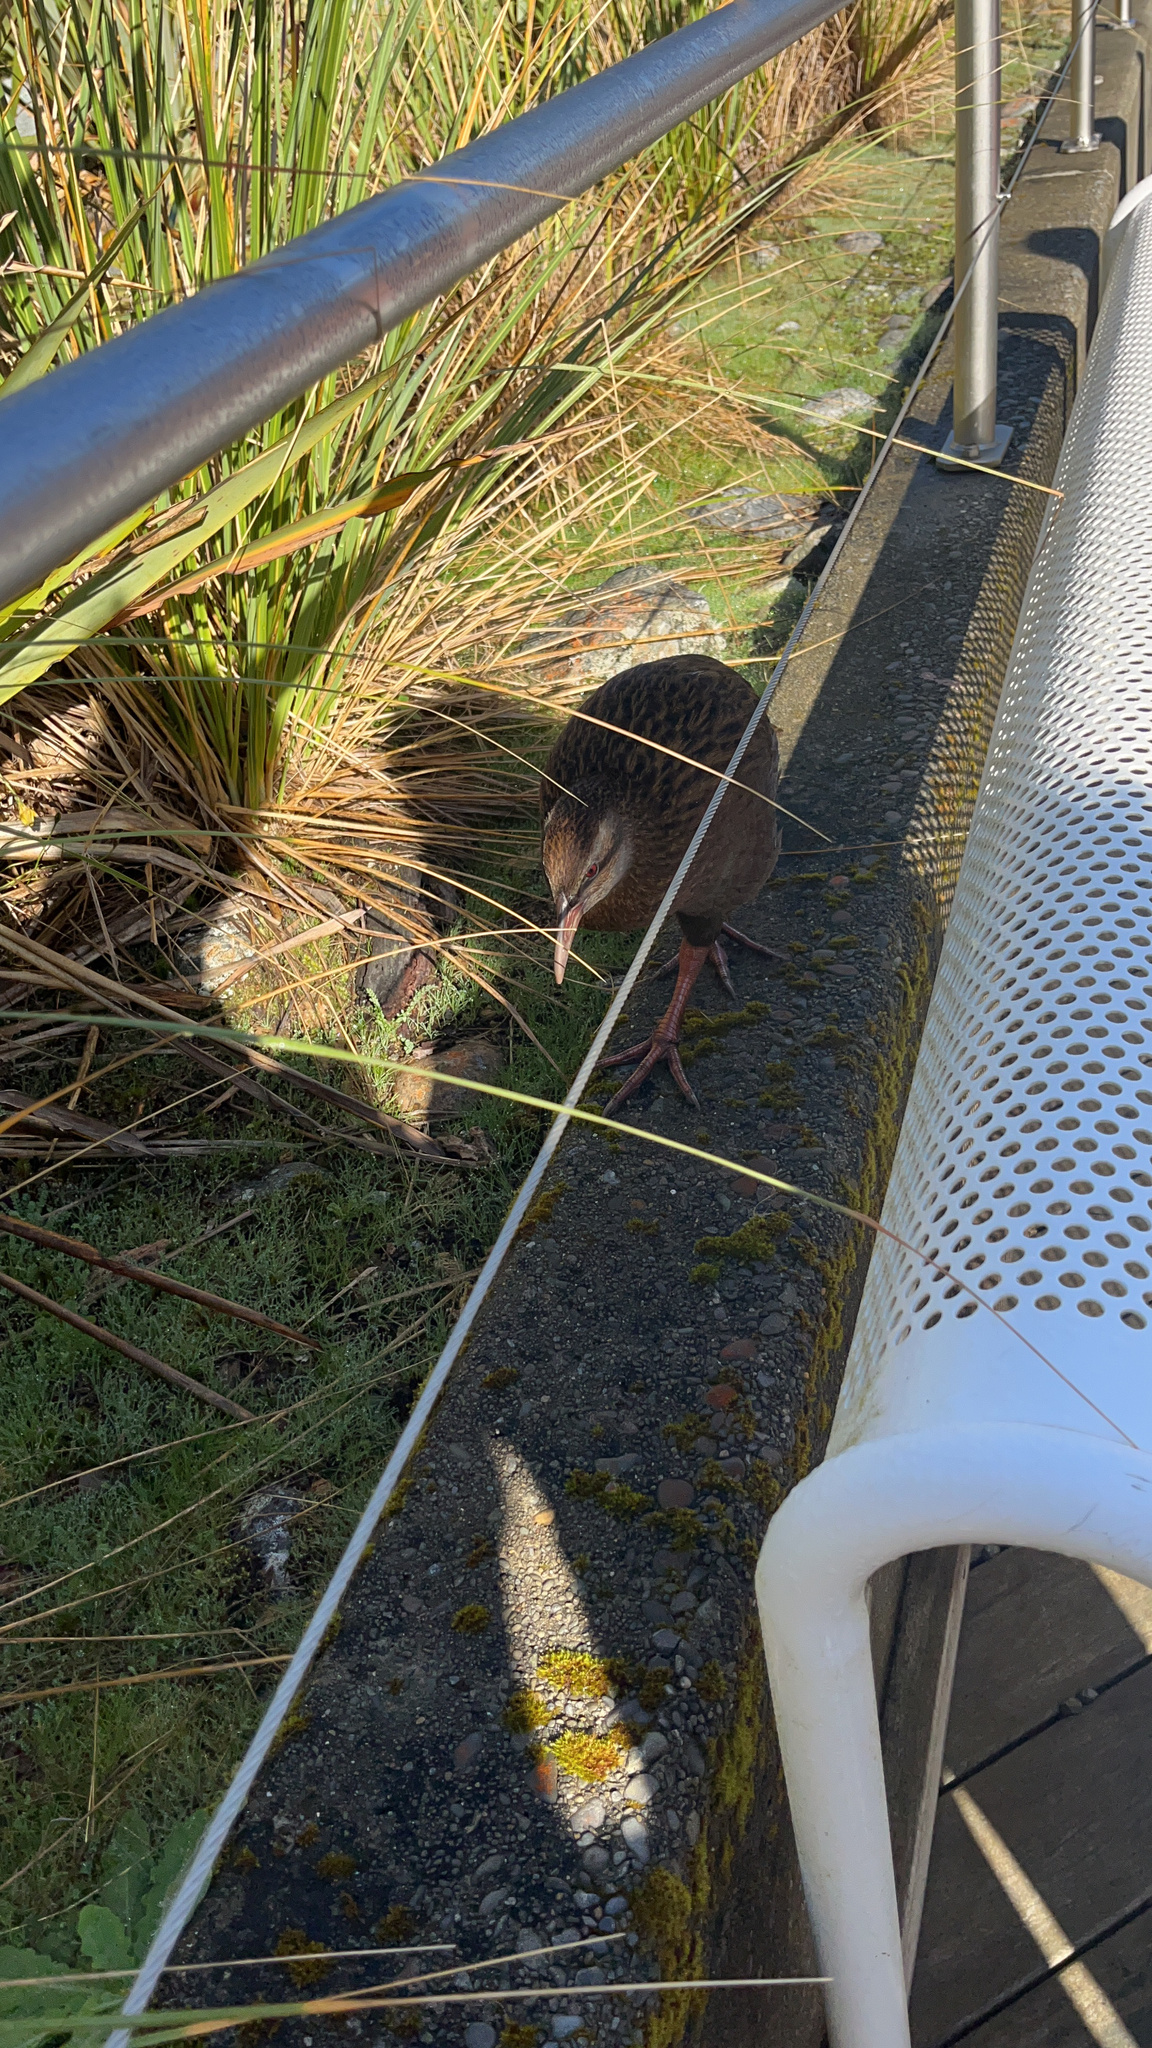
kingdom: Animalia
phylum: Chordata
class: Aves
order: Gruiformes
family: Rallidae
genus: Gallirallus
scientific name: Gallirallus australis
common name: Weka
